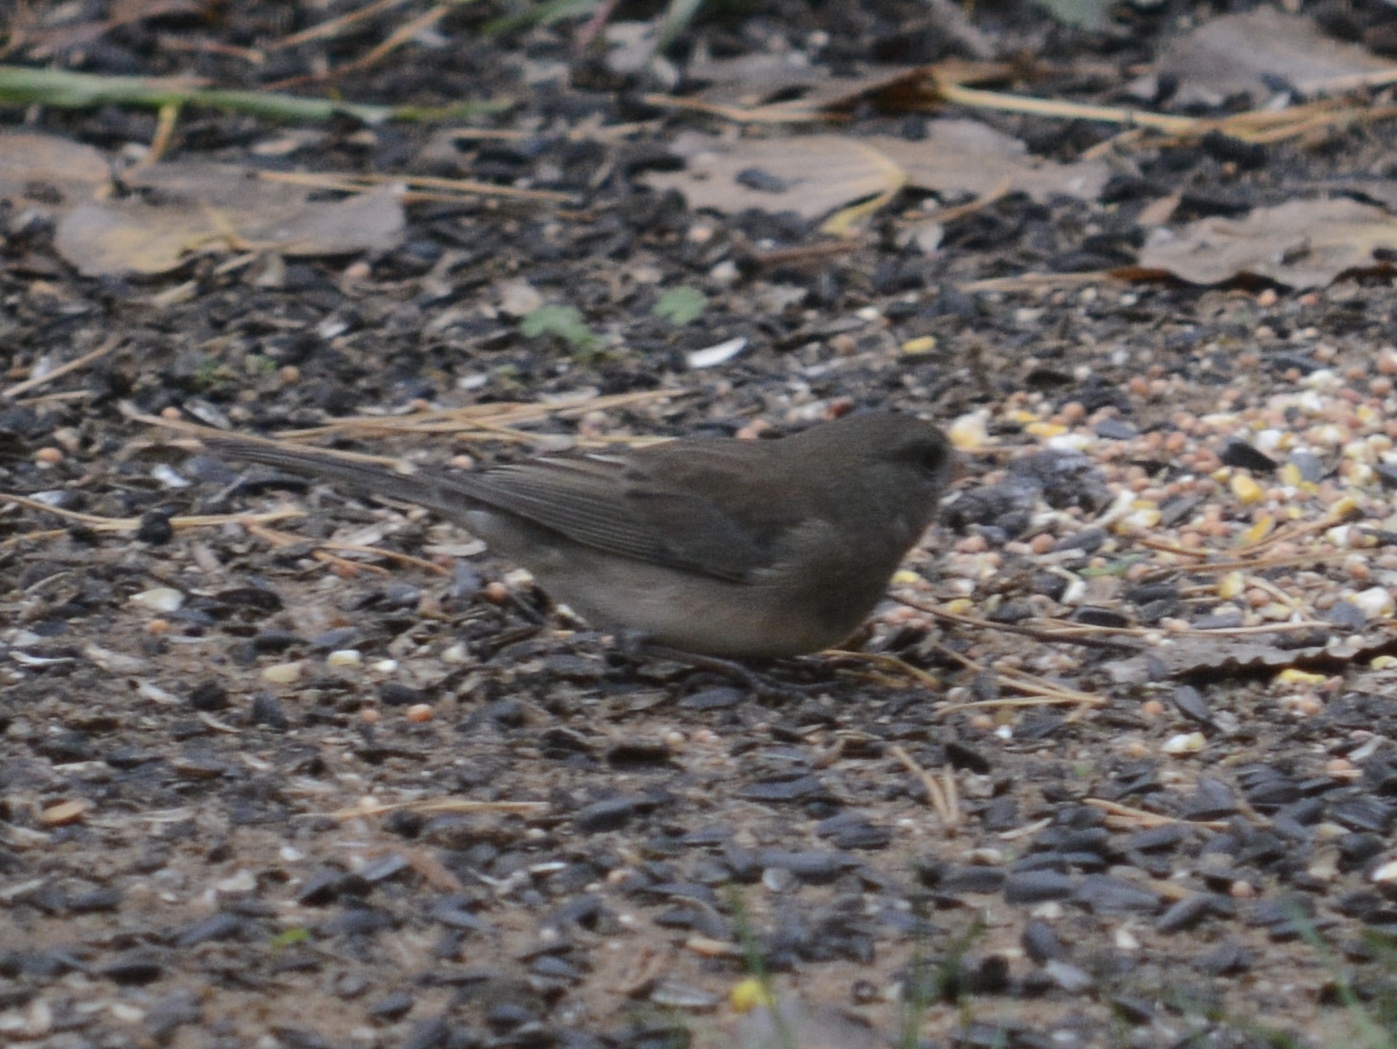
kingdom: Animalia
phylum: Chordata
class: Aves
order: Passeriformes
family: Passerellidae
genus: Junco
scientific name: Junco hyemalis
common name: Dark-eyed junco
